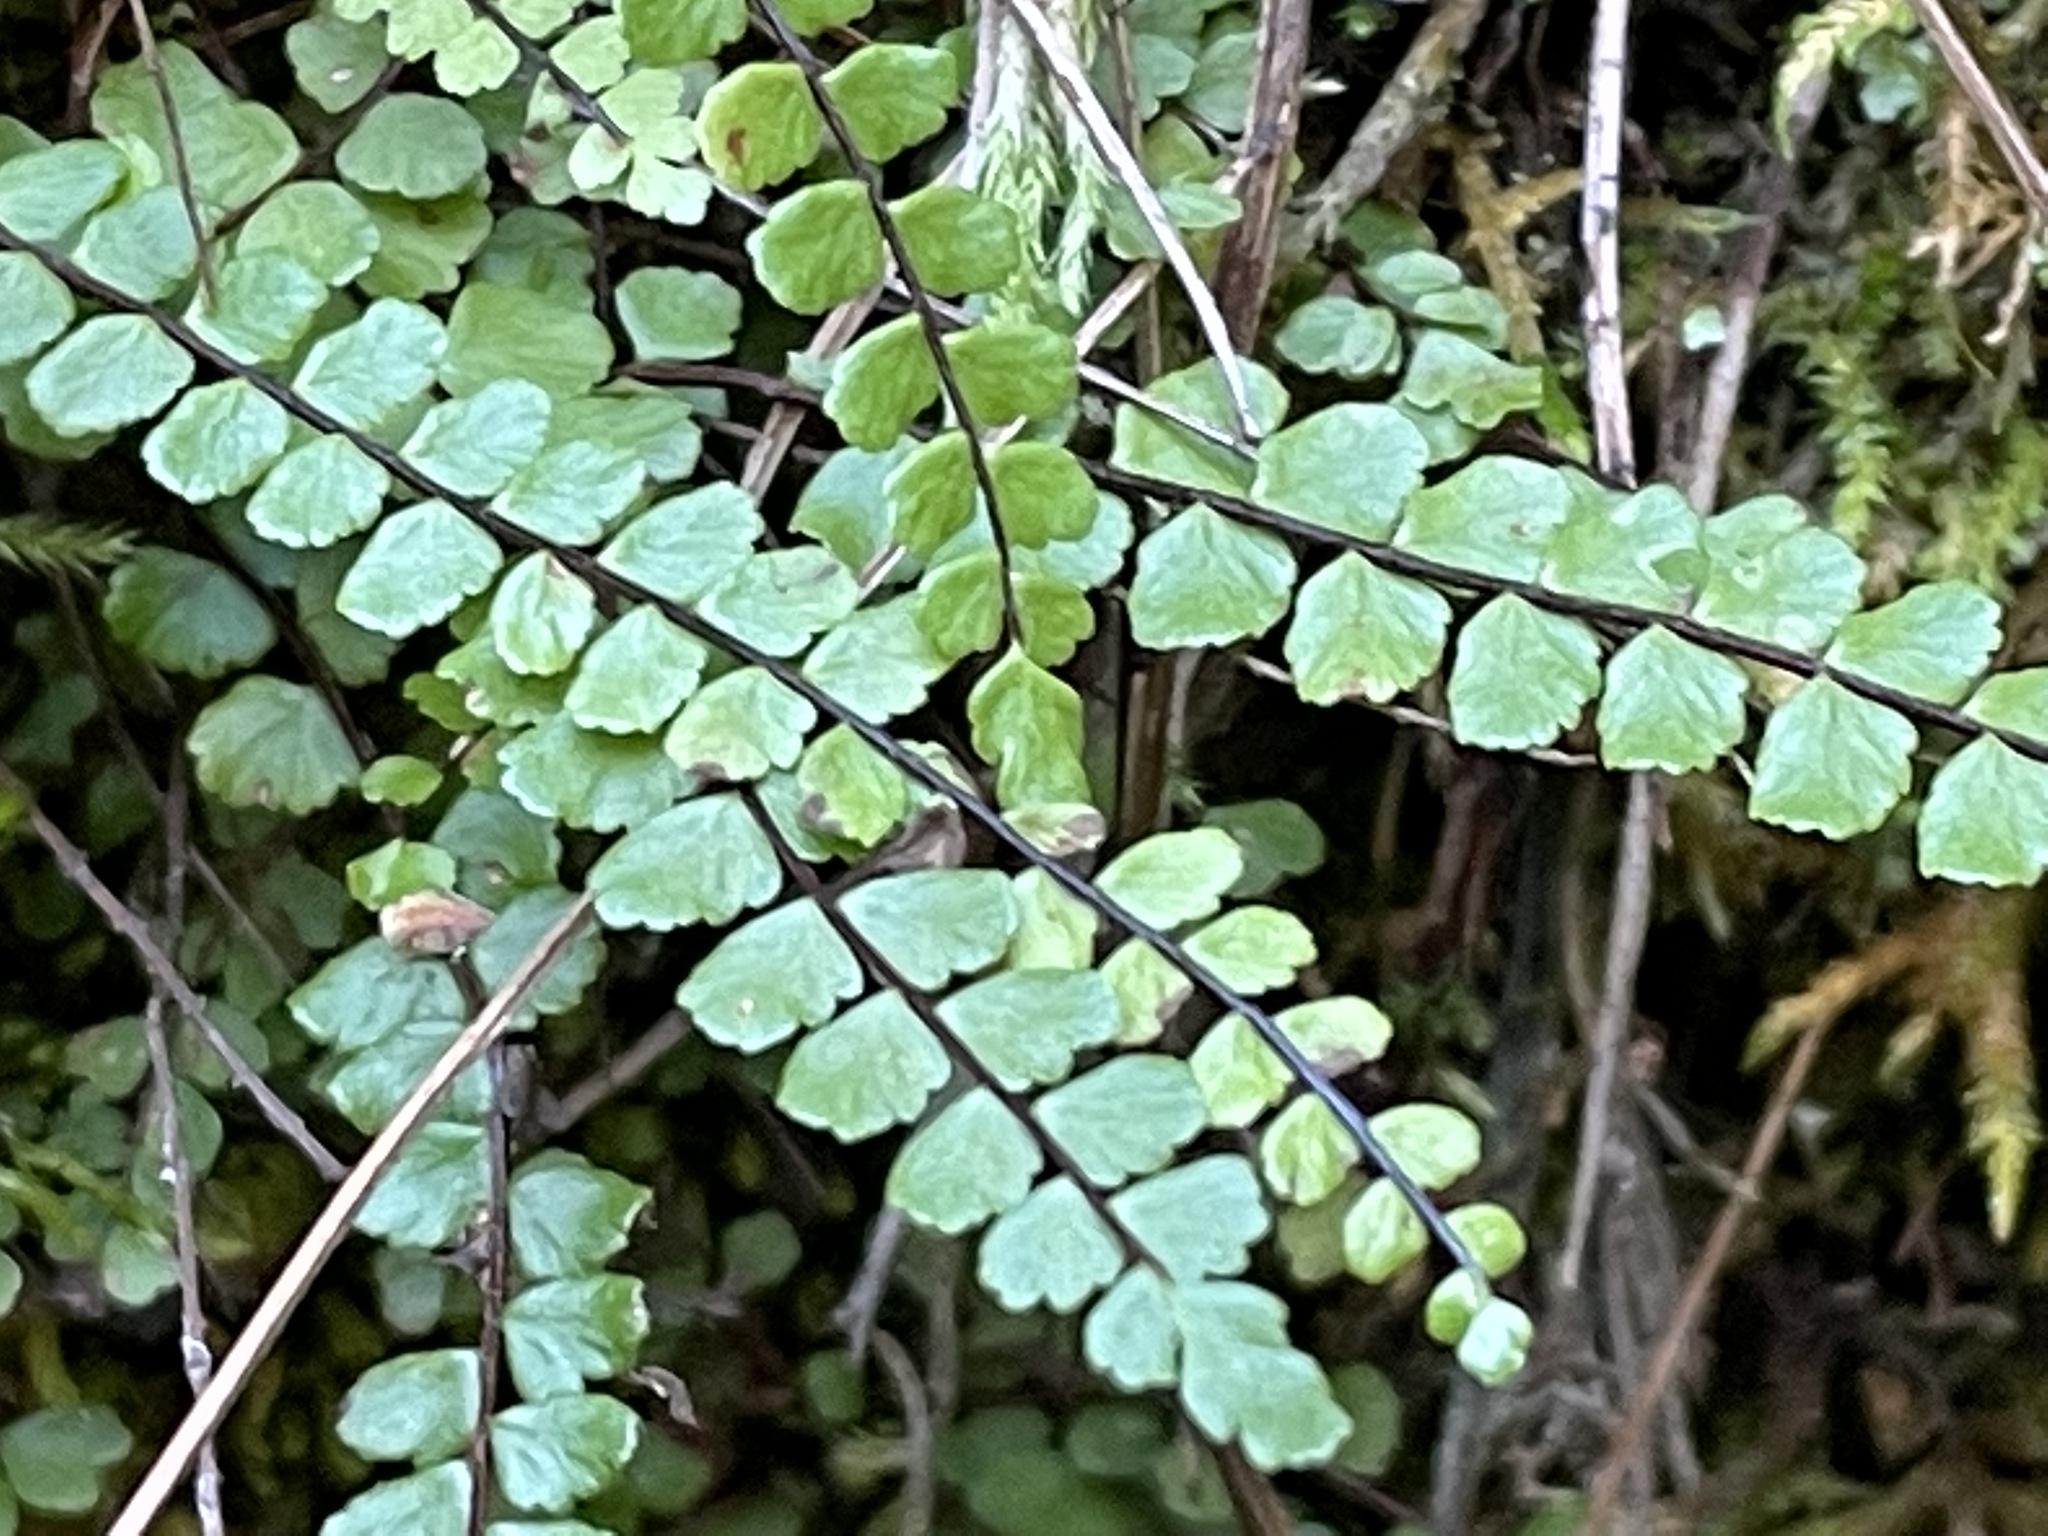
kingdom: Plantae
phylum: Tracheophyta
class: Polypodiopsida
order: Polypodiales
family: Aspleniaceae
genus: Asplenium
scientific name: Asplenium trichomanes
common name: Maidenhair spleenwort
